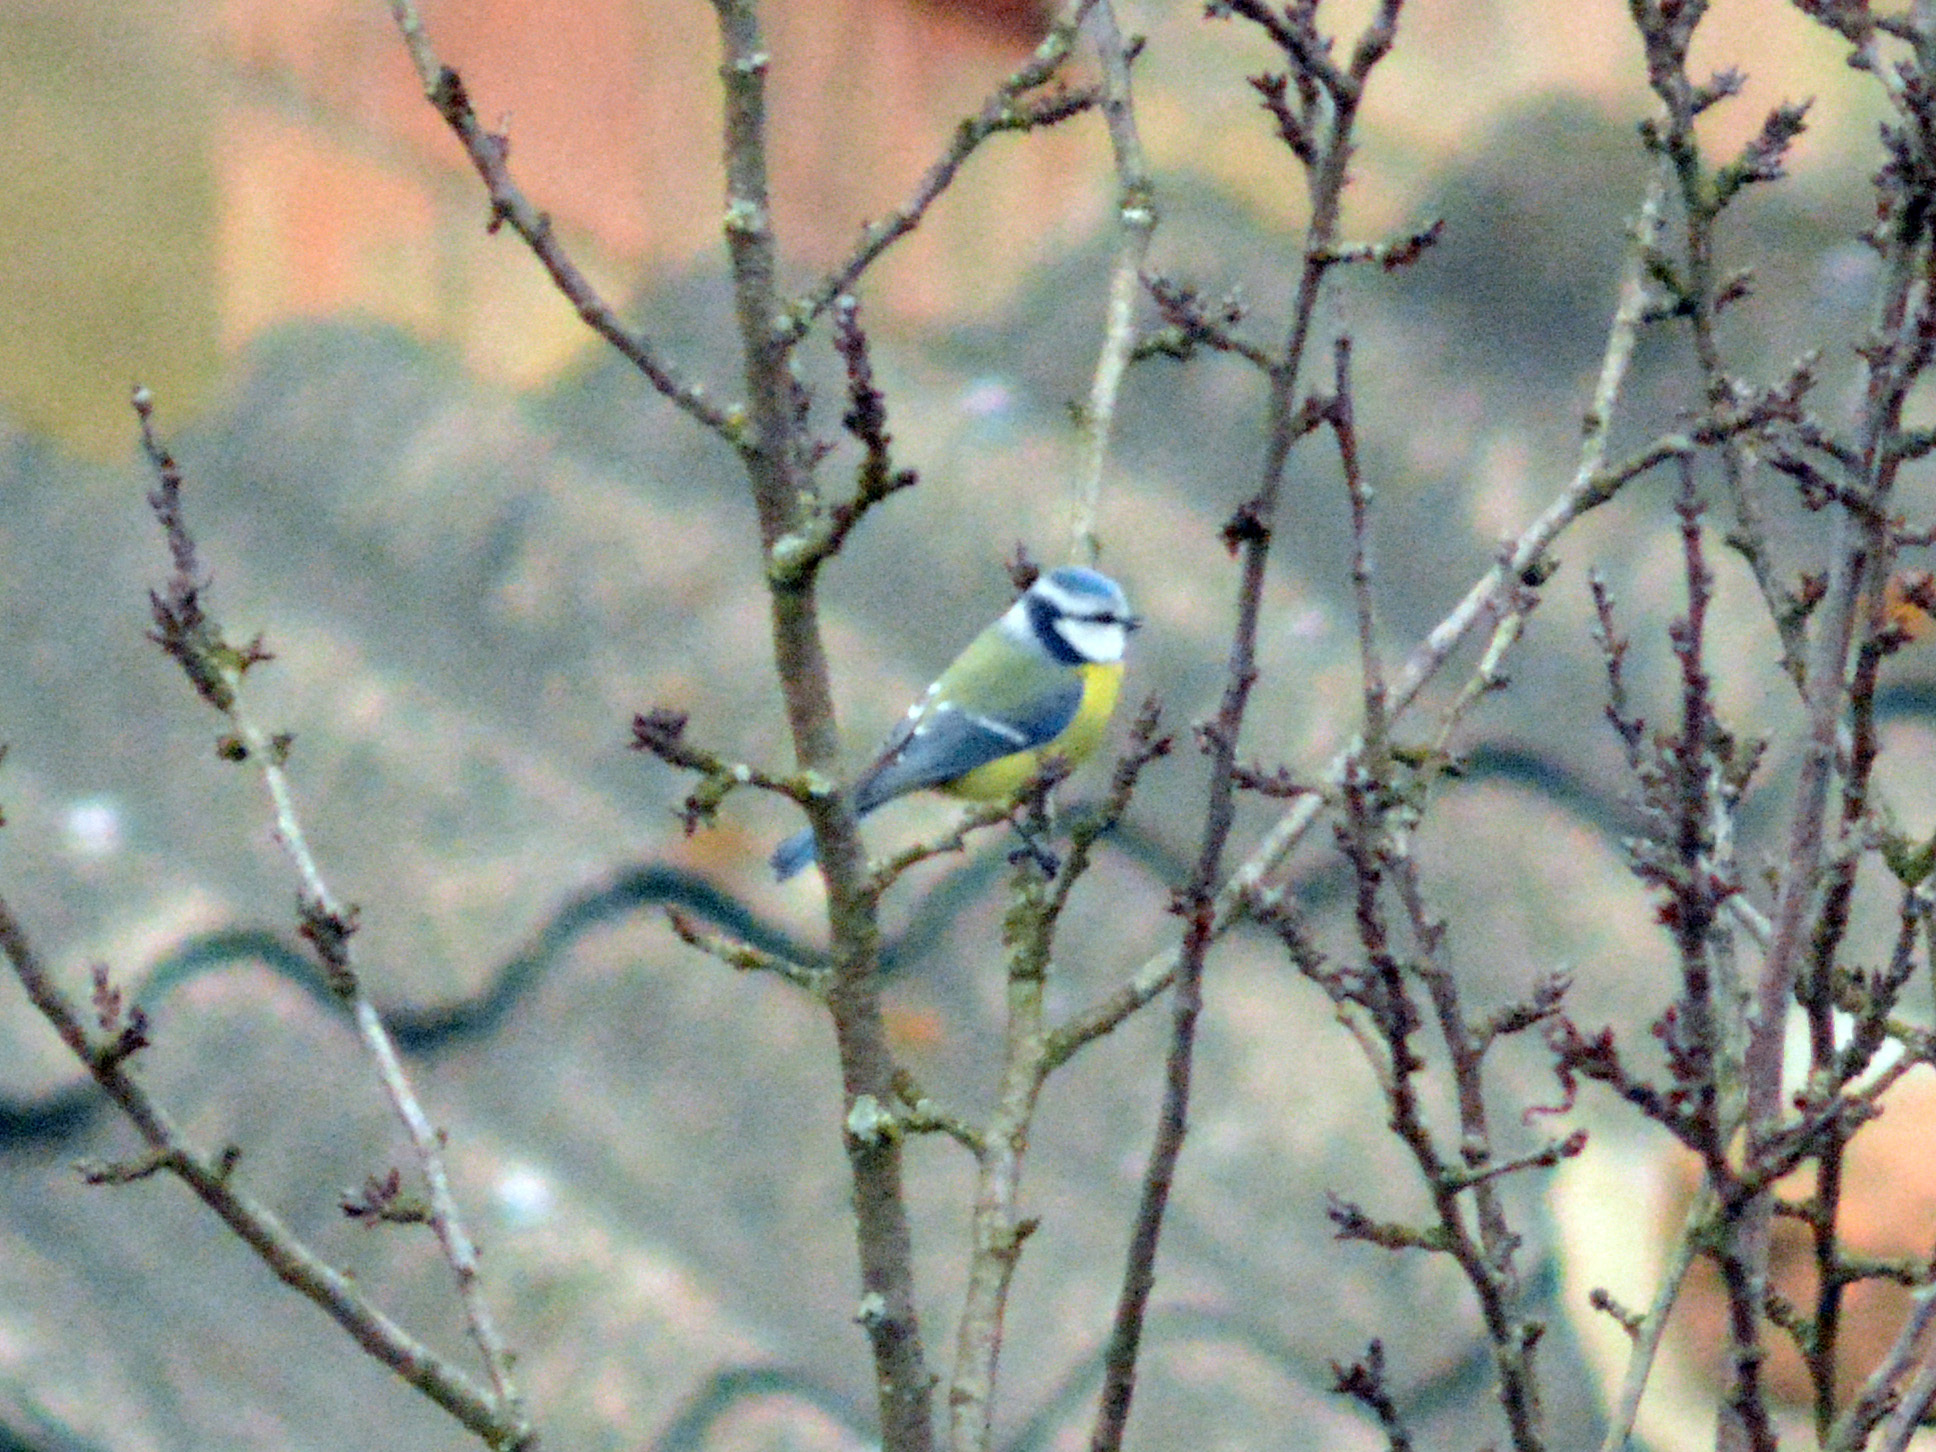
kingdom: Animalia
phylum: Chordata
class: Aves
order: Passeriformes
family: Paridae
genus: Cyanistes
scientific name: Cyanistes caeruleus
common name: Eurasian blue tit
